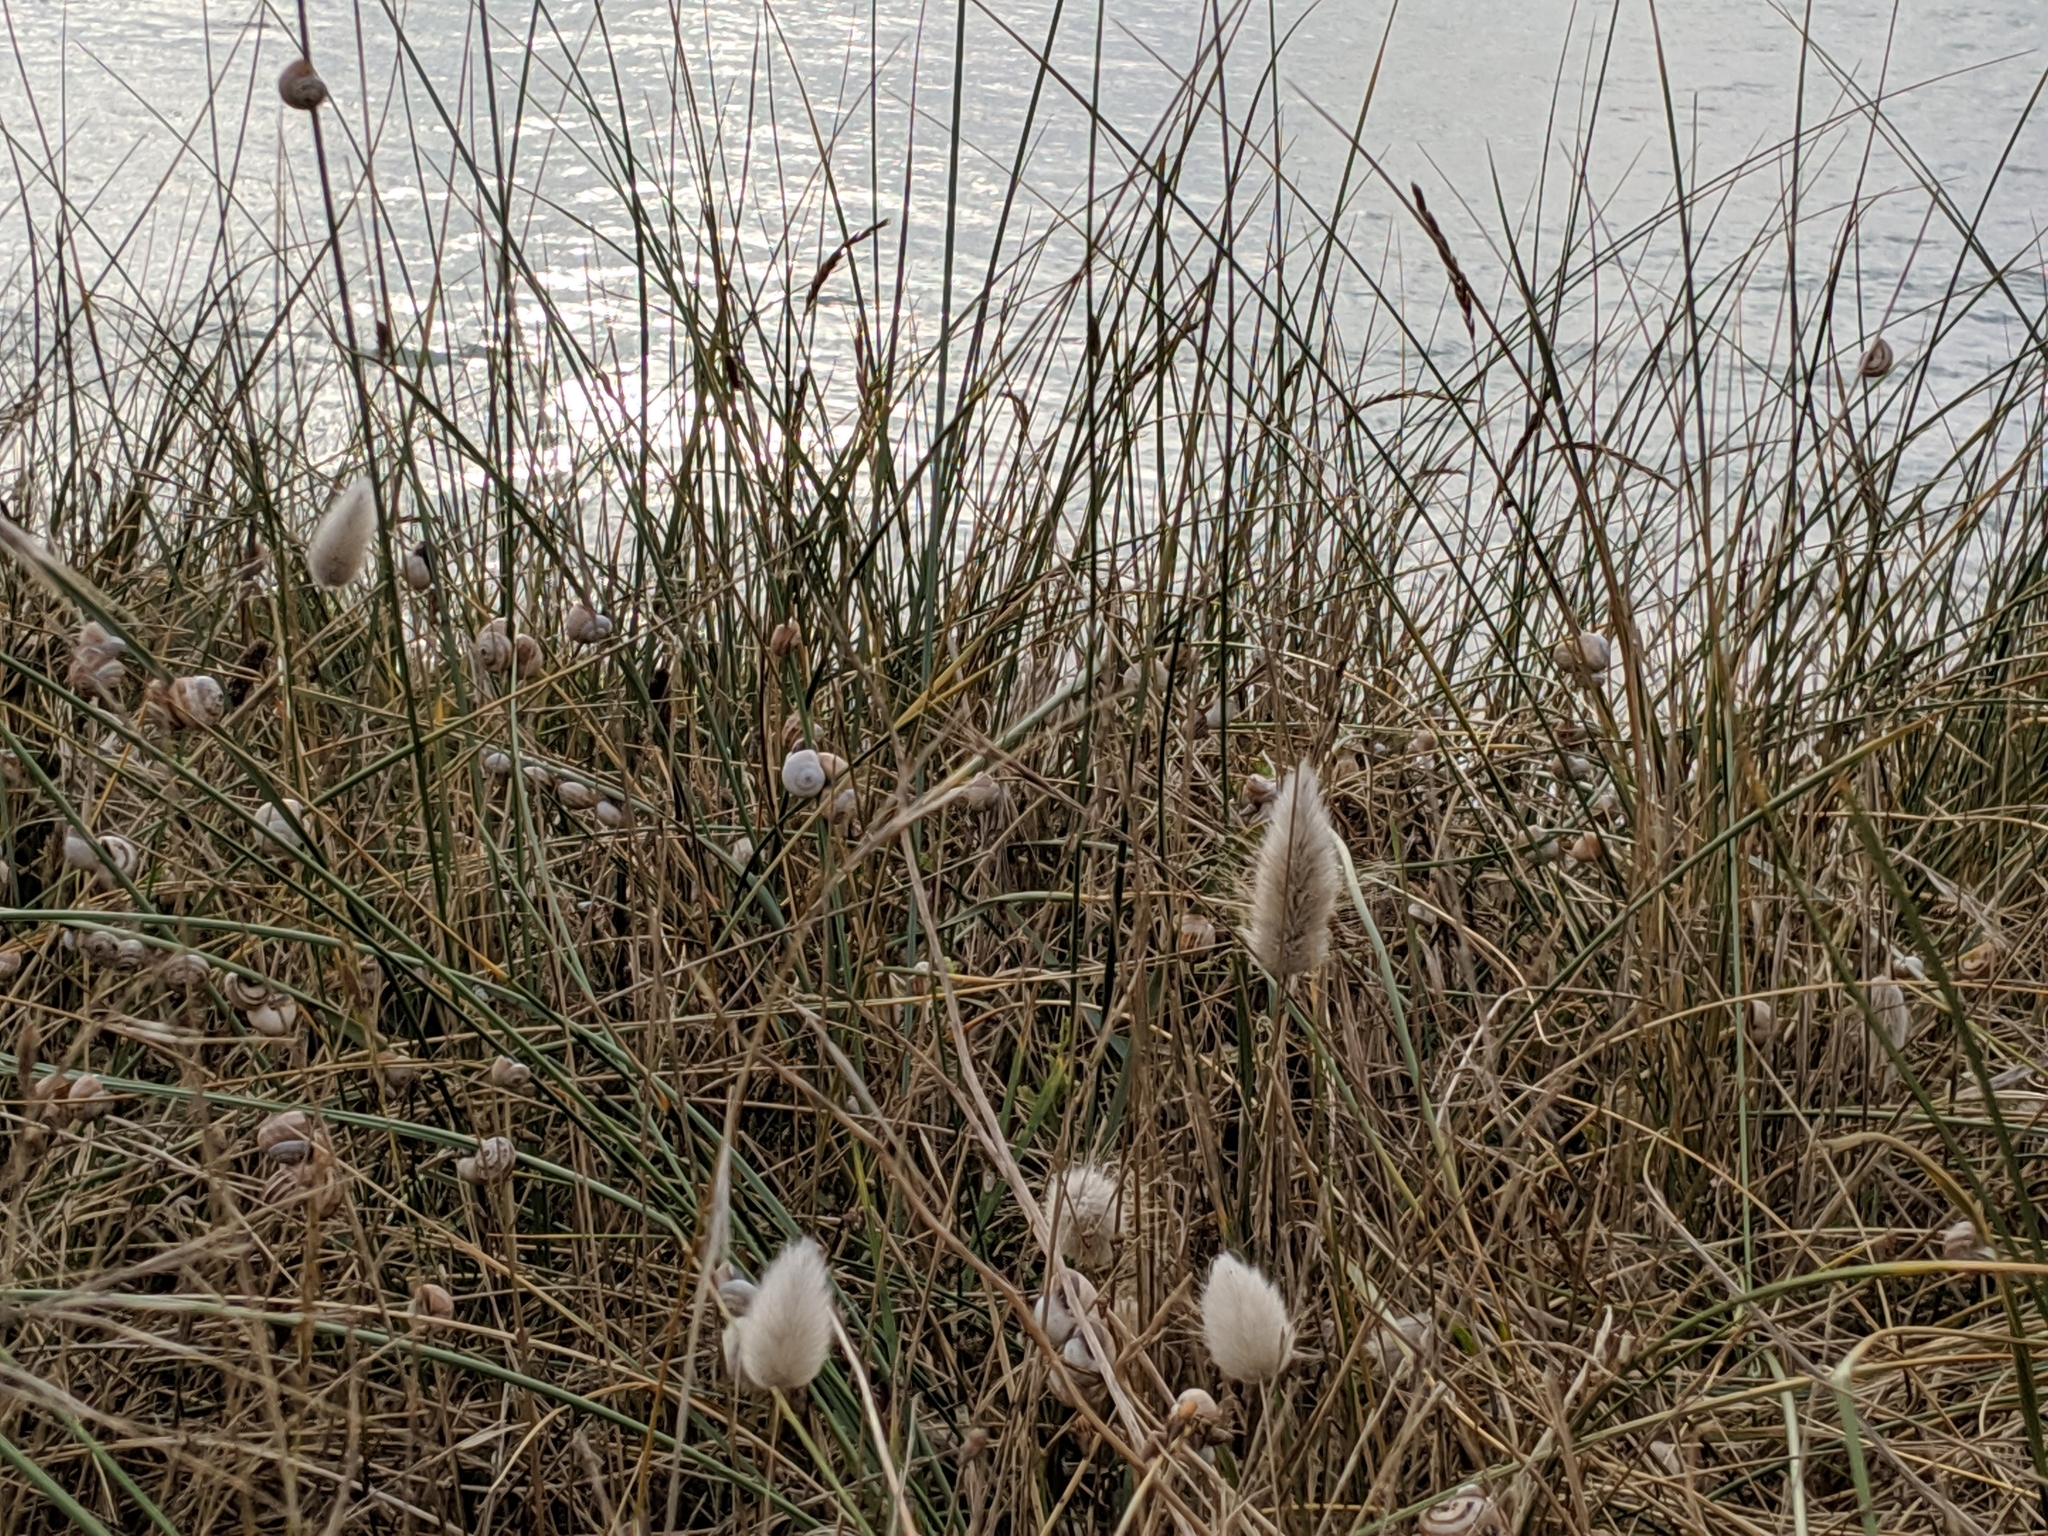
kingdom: Plantae
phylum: Tracheophyta
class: Liliopsida
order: Poales
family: Poaceae
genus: Lagurus
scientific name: Lagurus ovatus
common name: Hare's-tail
